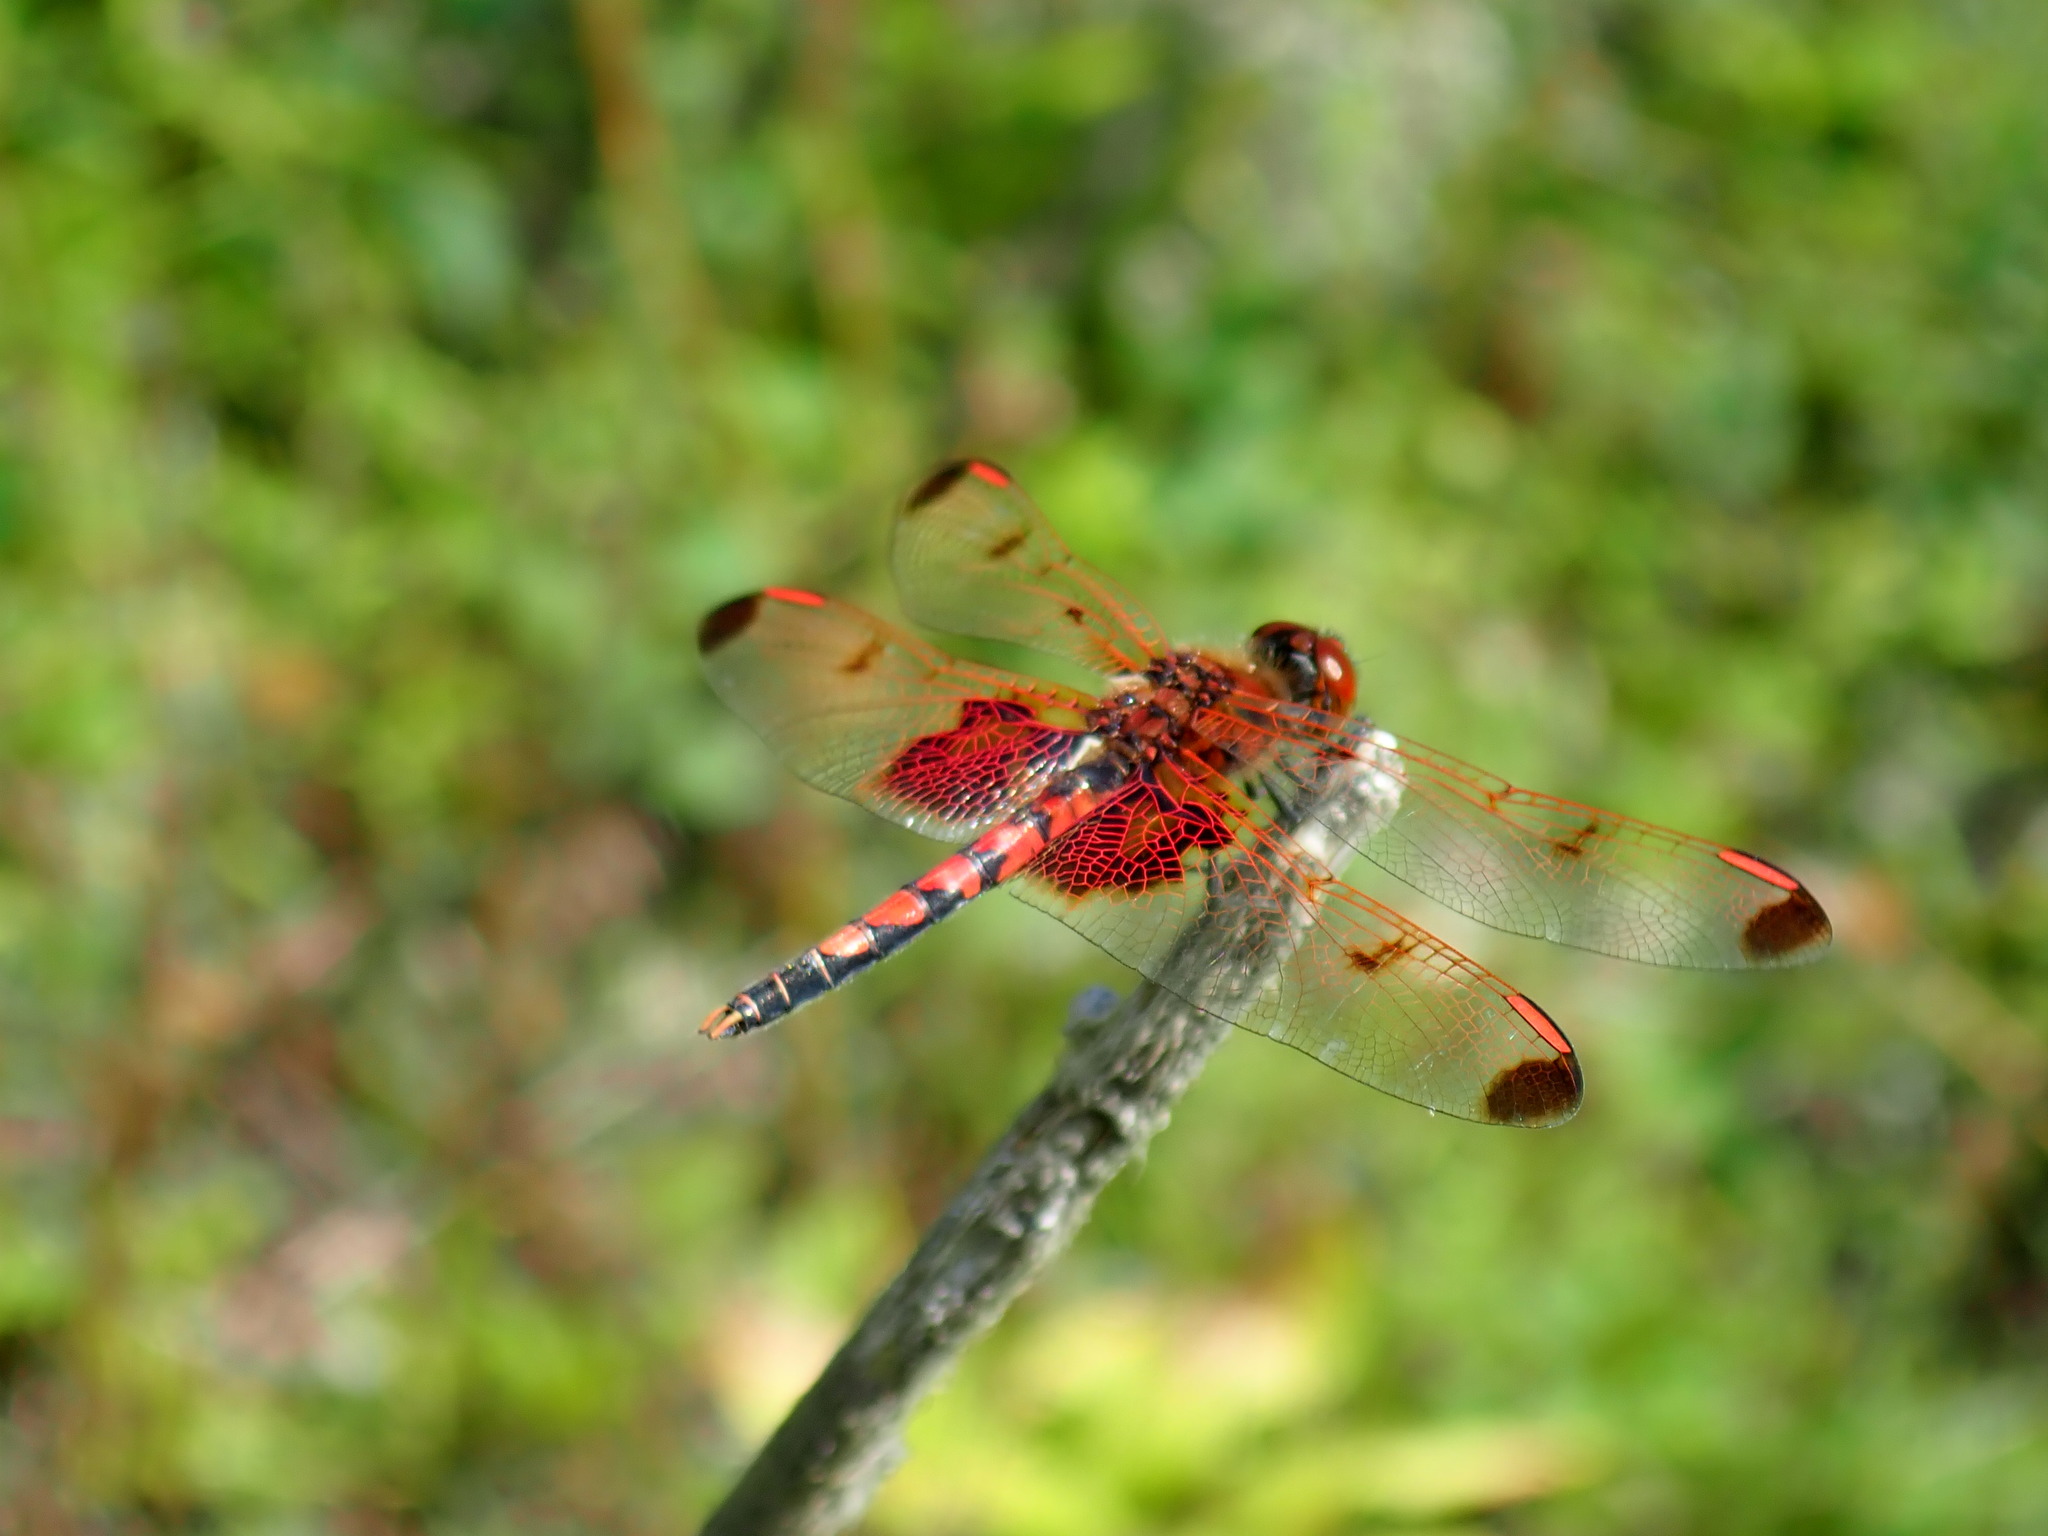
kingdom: Animalia
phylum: Arthropoda
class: Insecta
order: Odonata
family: Libellulidae
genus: Celithemis
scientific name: Celithemis elisa
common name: Calico pennant
